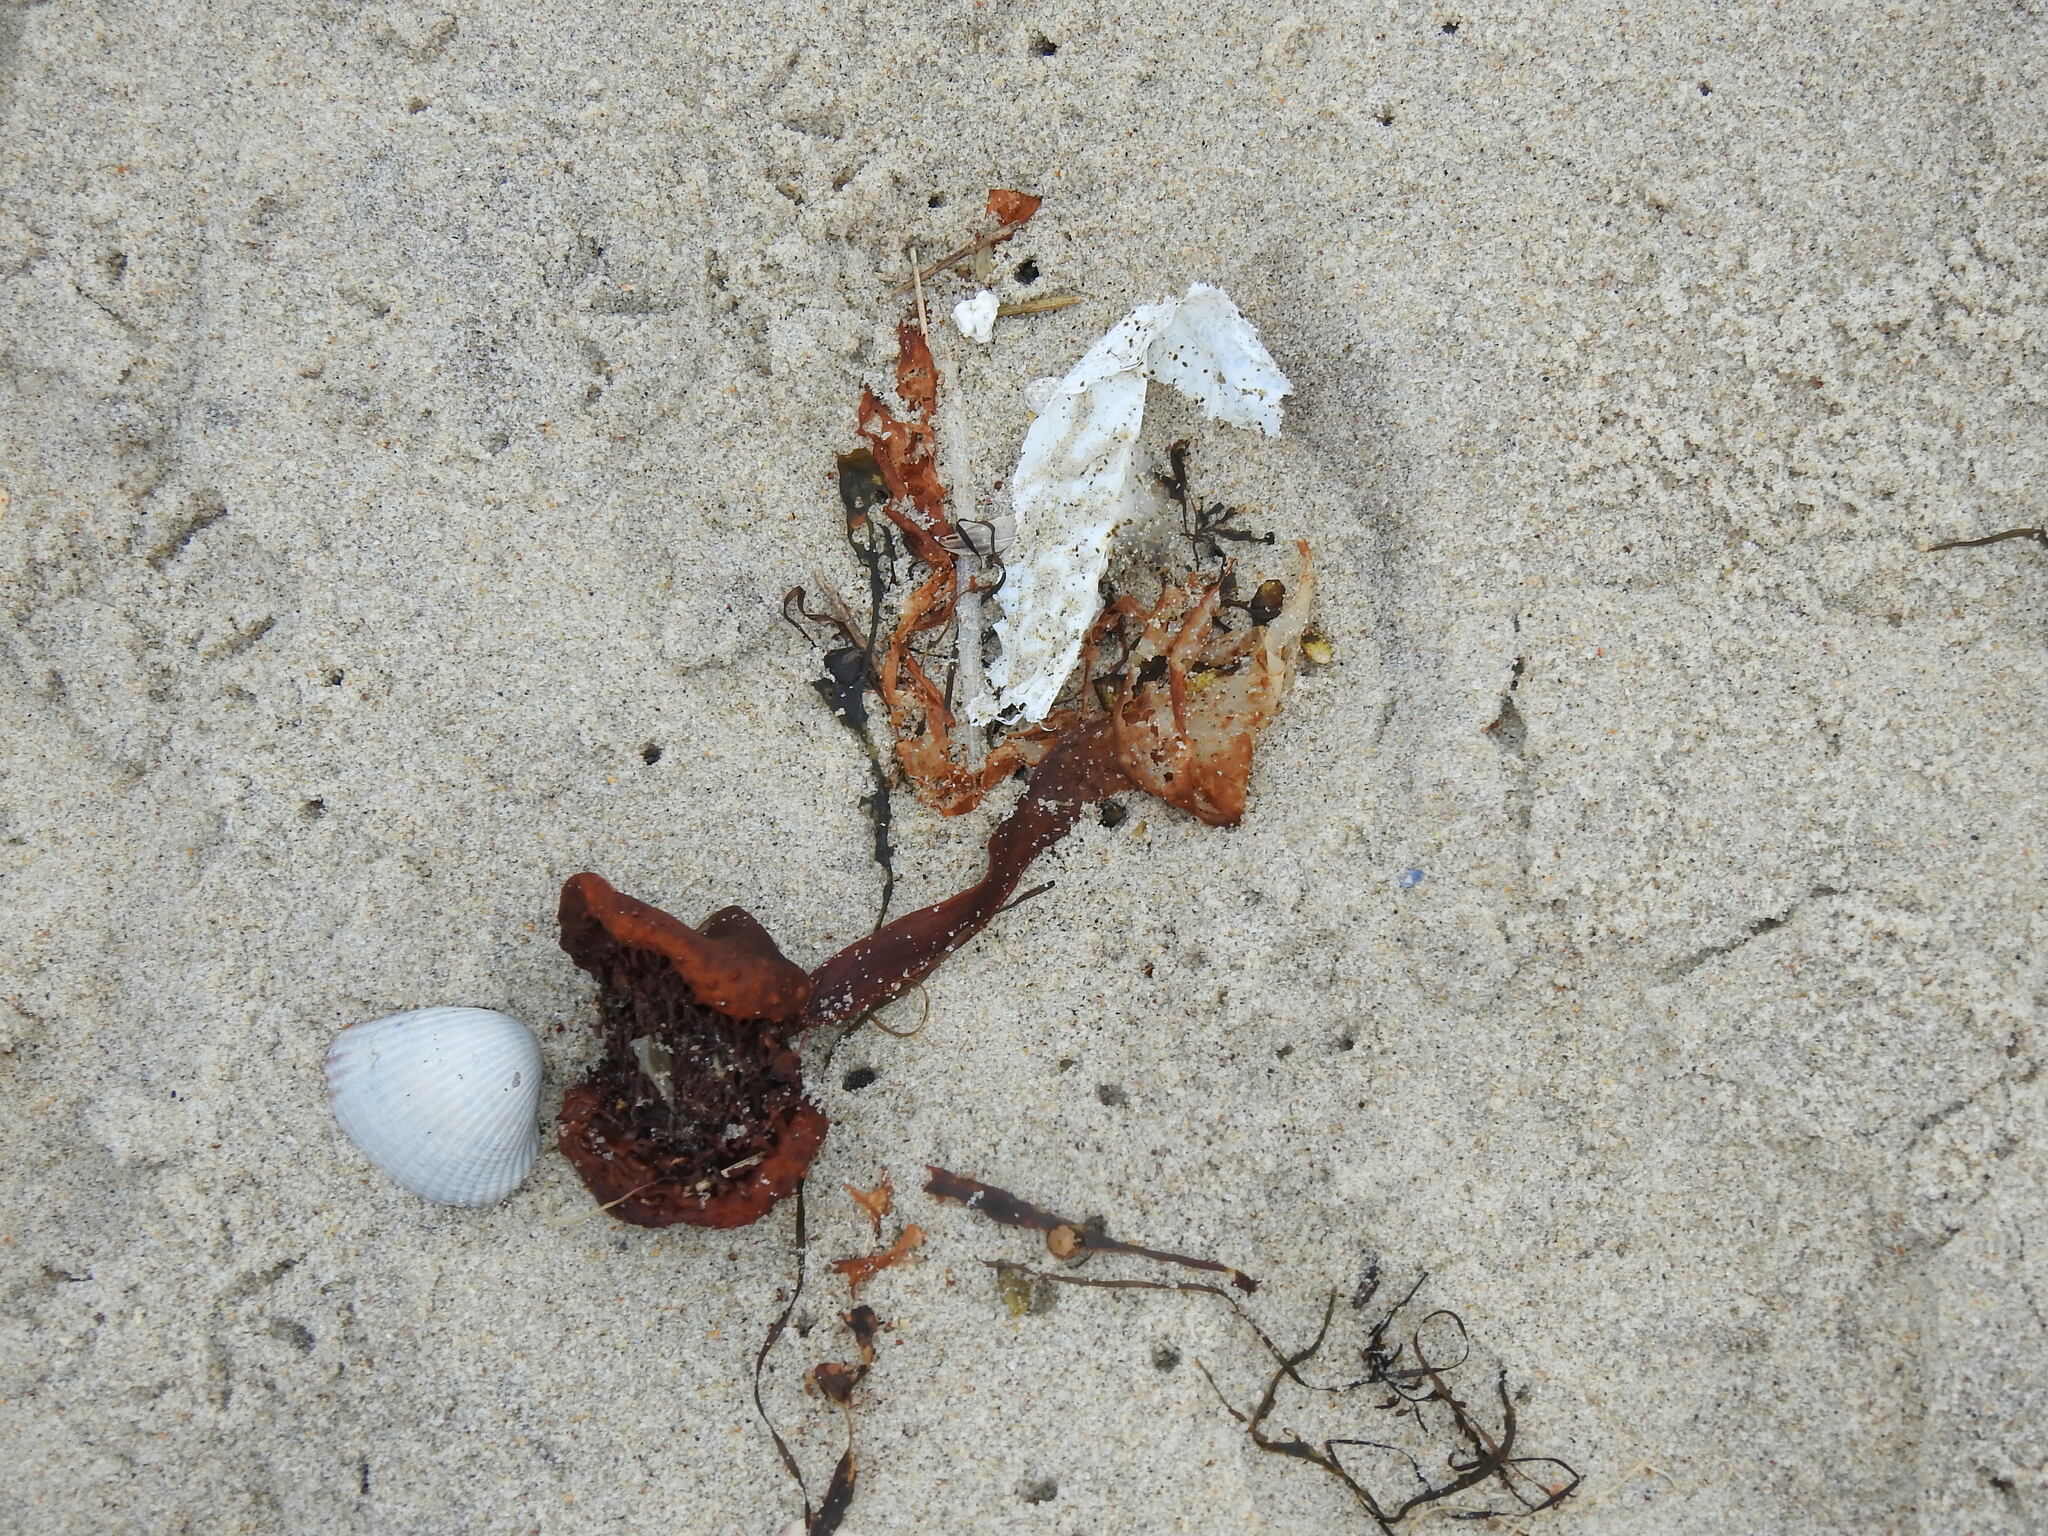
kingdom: Chromista
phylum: Ochrophyta
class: Phaeophyceae
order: Tilopteridales
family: Phyllariaceae
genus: Saccorhiza
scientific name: Saccorhiza polyschides
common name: Furbelows
